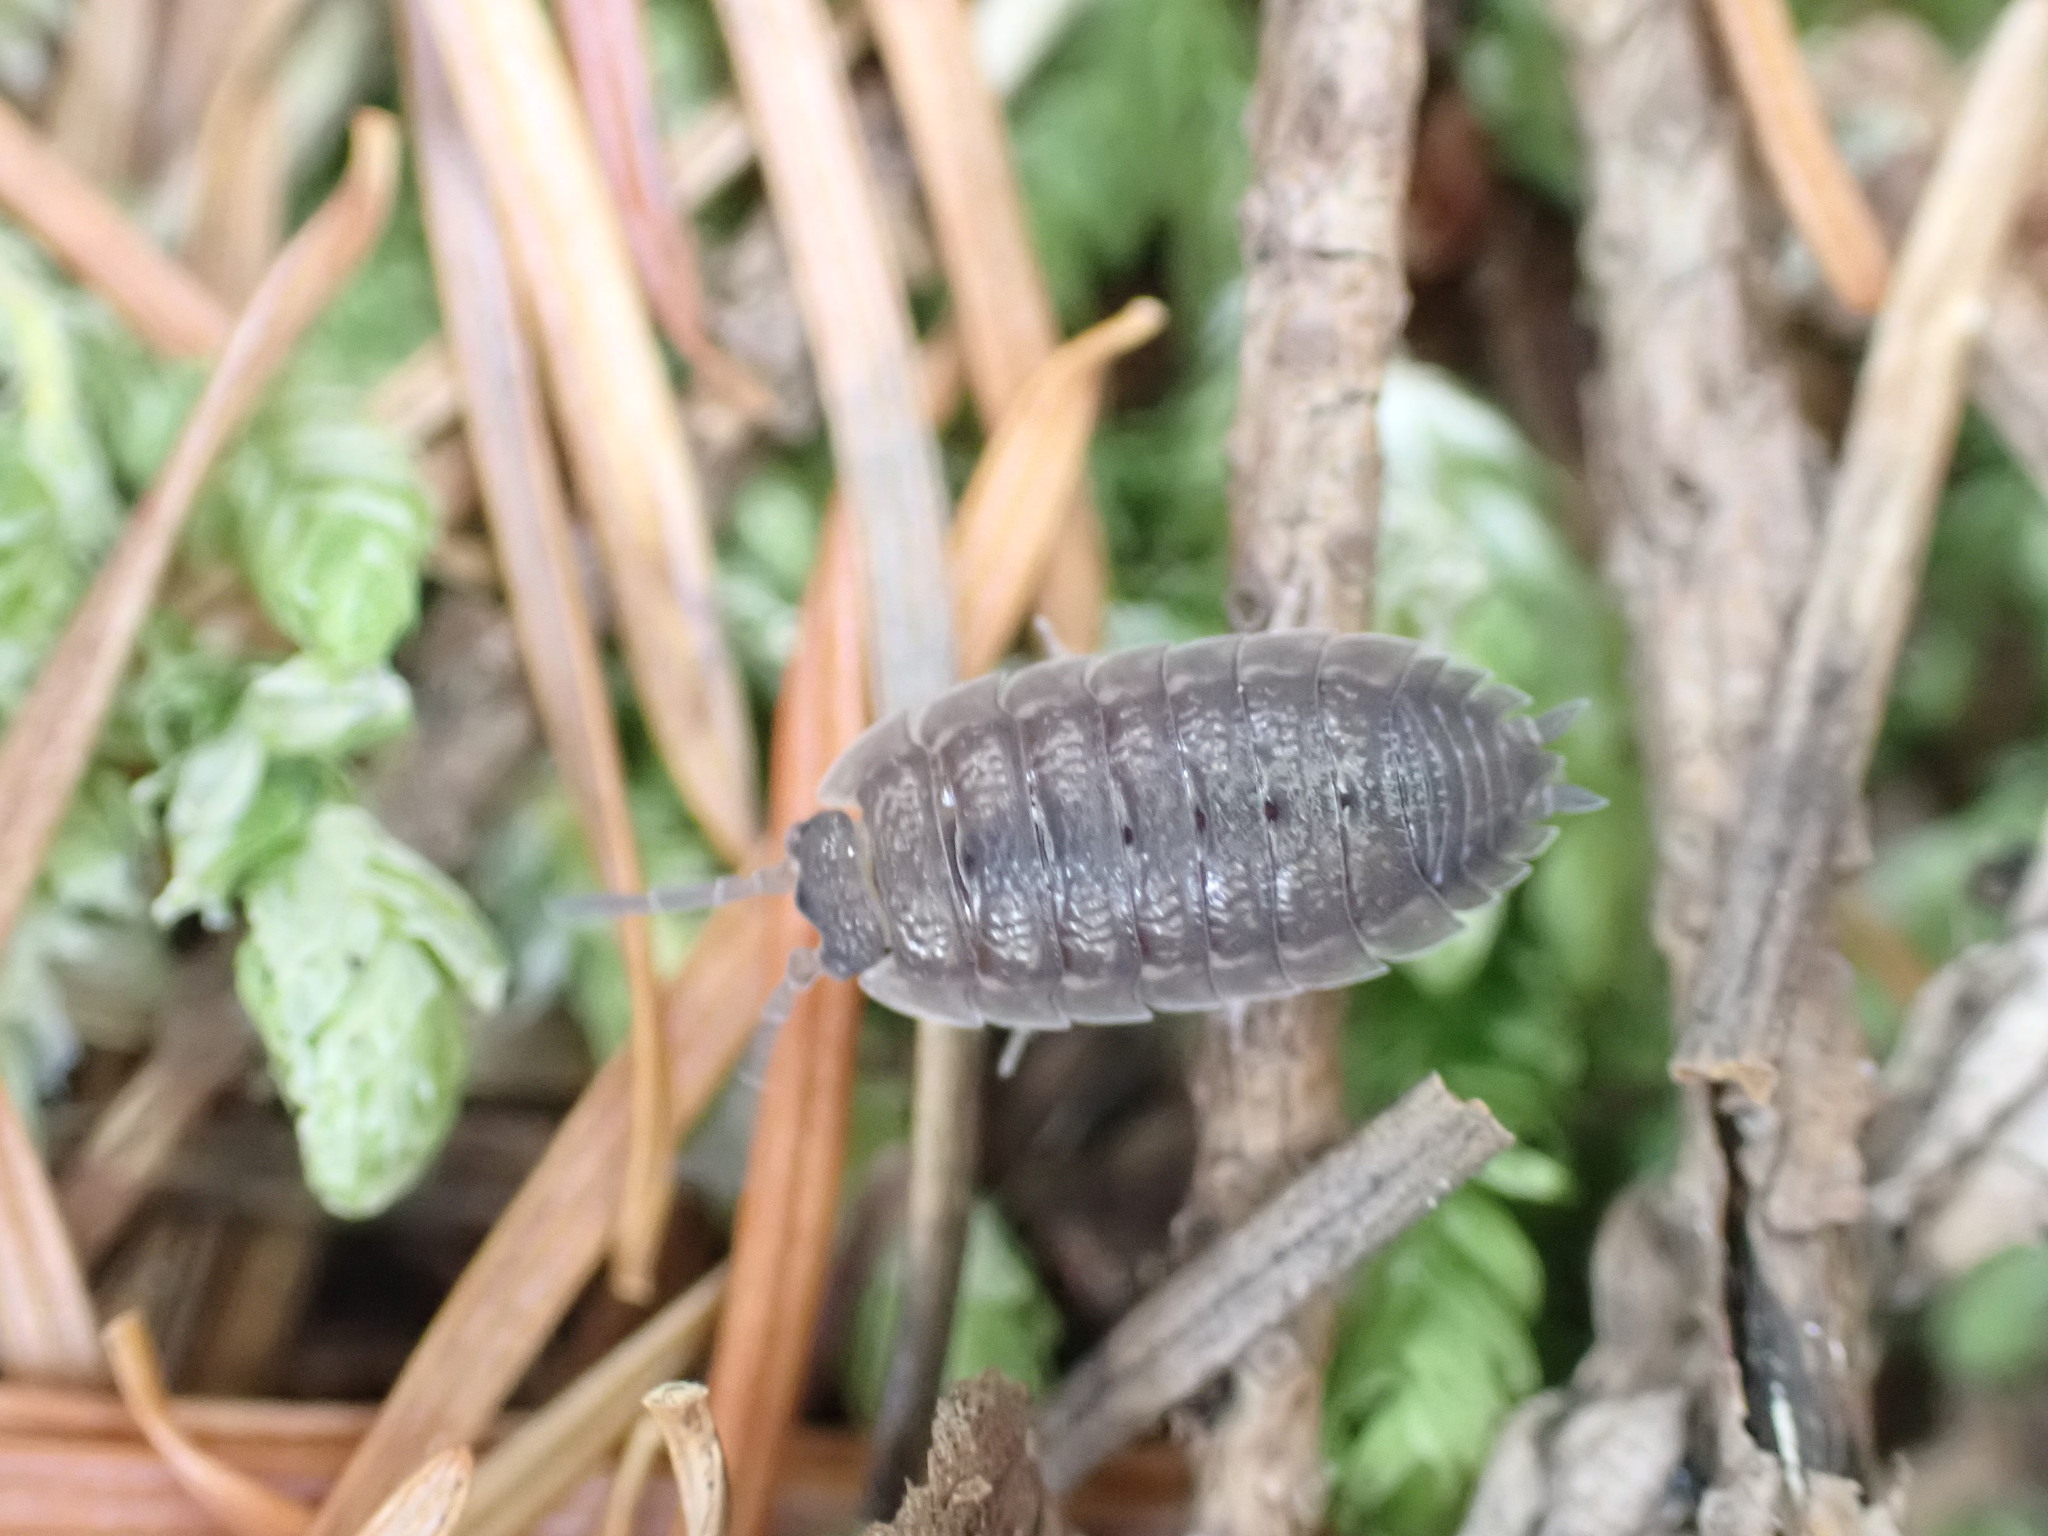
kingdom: Animalia
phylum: Arthropoda
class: Malacostraca
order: Isopoda
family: Porcellionidae
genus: Porcellio
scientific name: Porcellio scaber
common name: Common rough woodlouse
